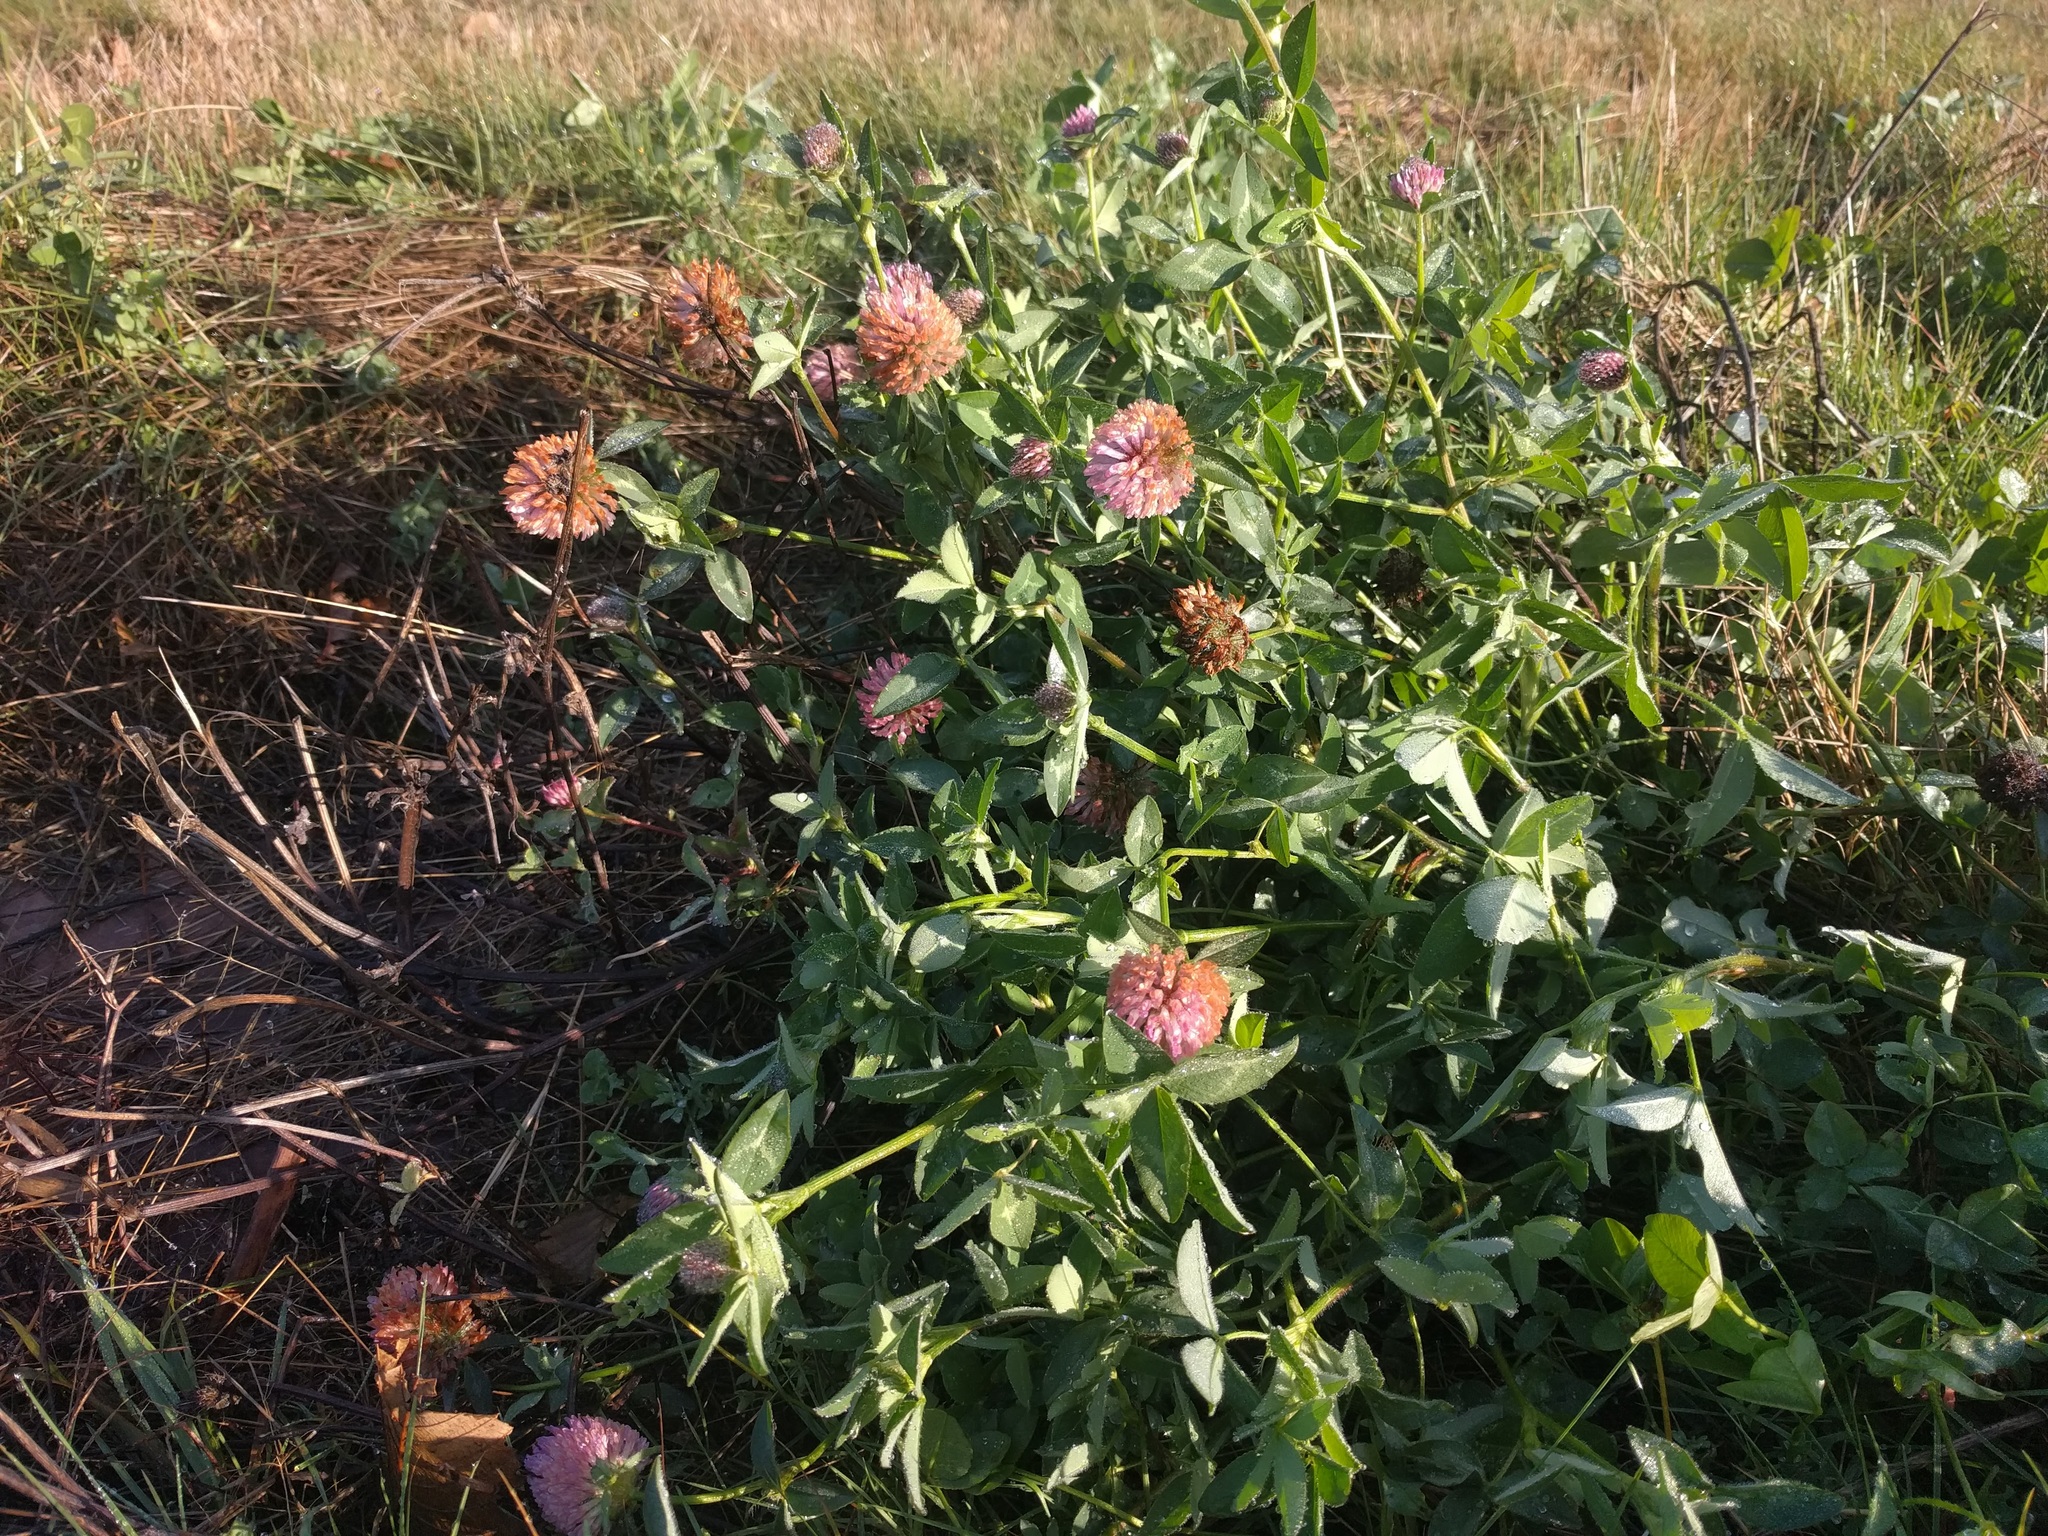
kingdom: Plantae
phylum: Tracheophyta
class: Magnoliopsida
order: Fabales
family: Fabaceae
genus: Trifolium
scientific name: Trifolium pratense
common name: Red clover
